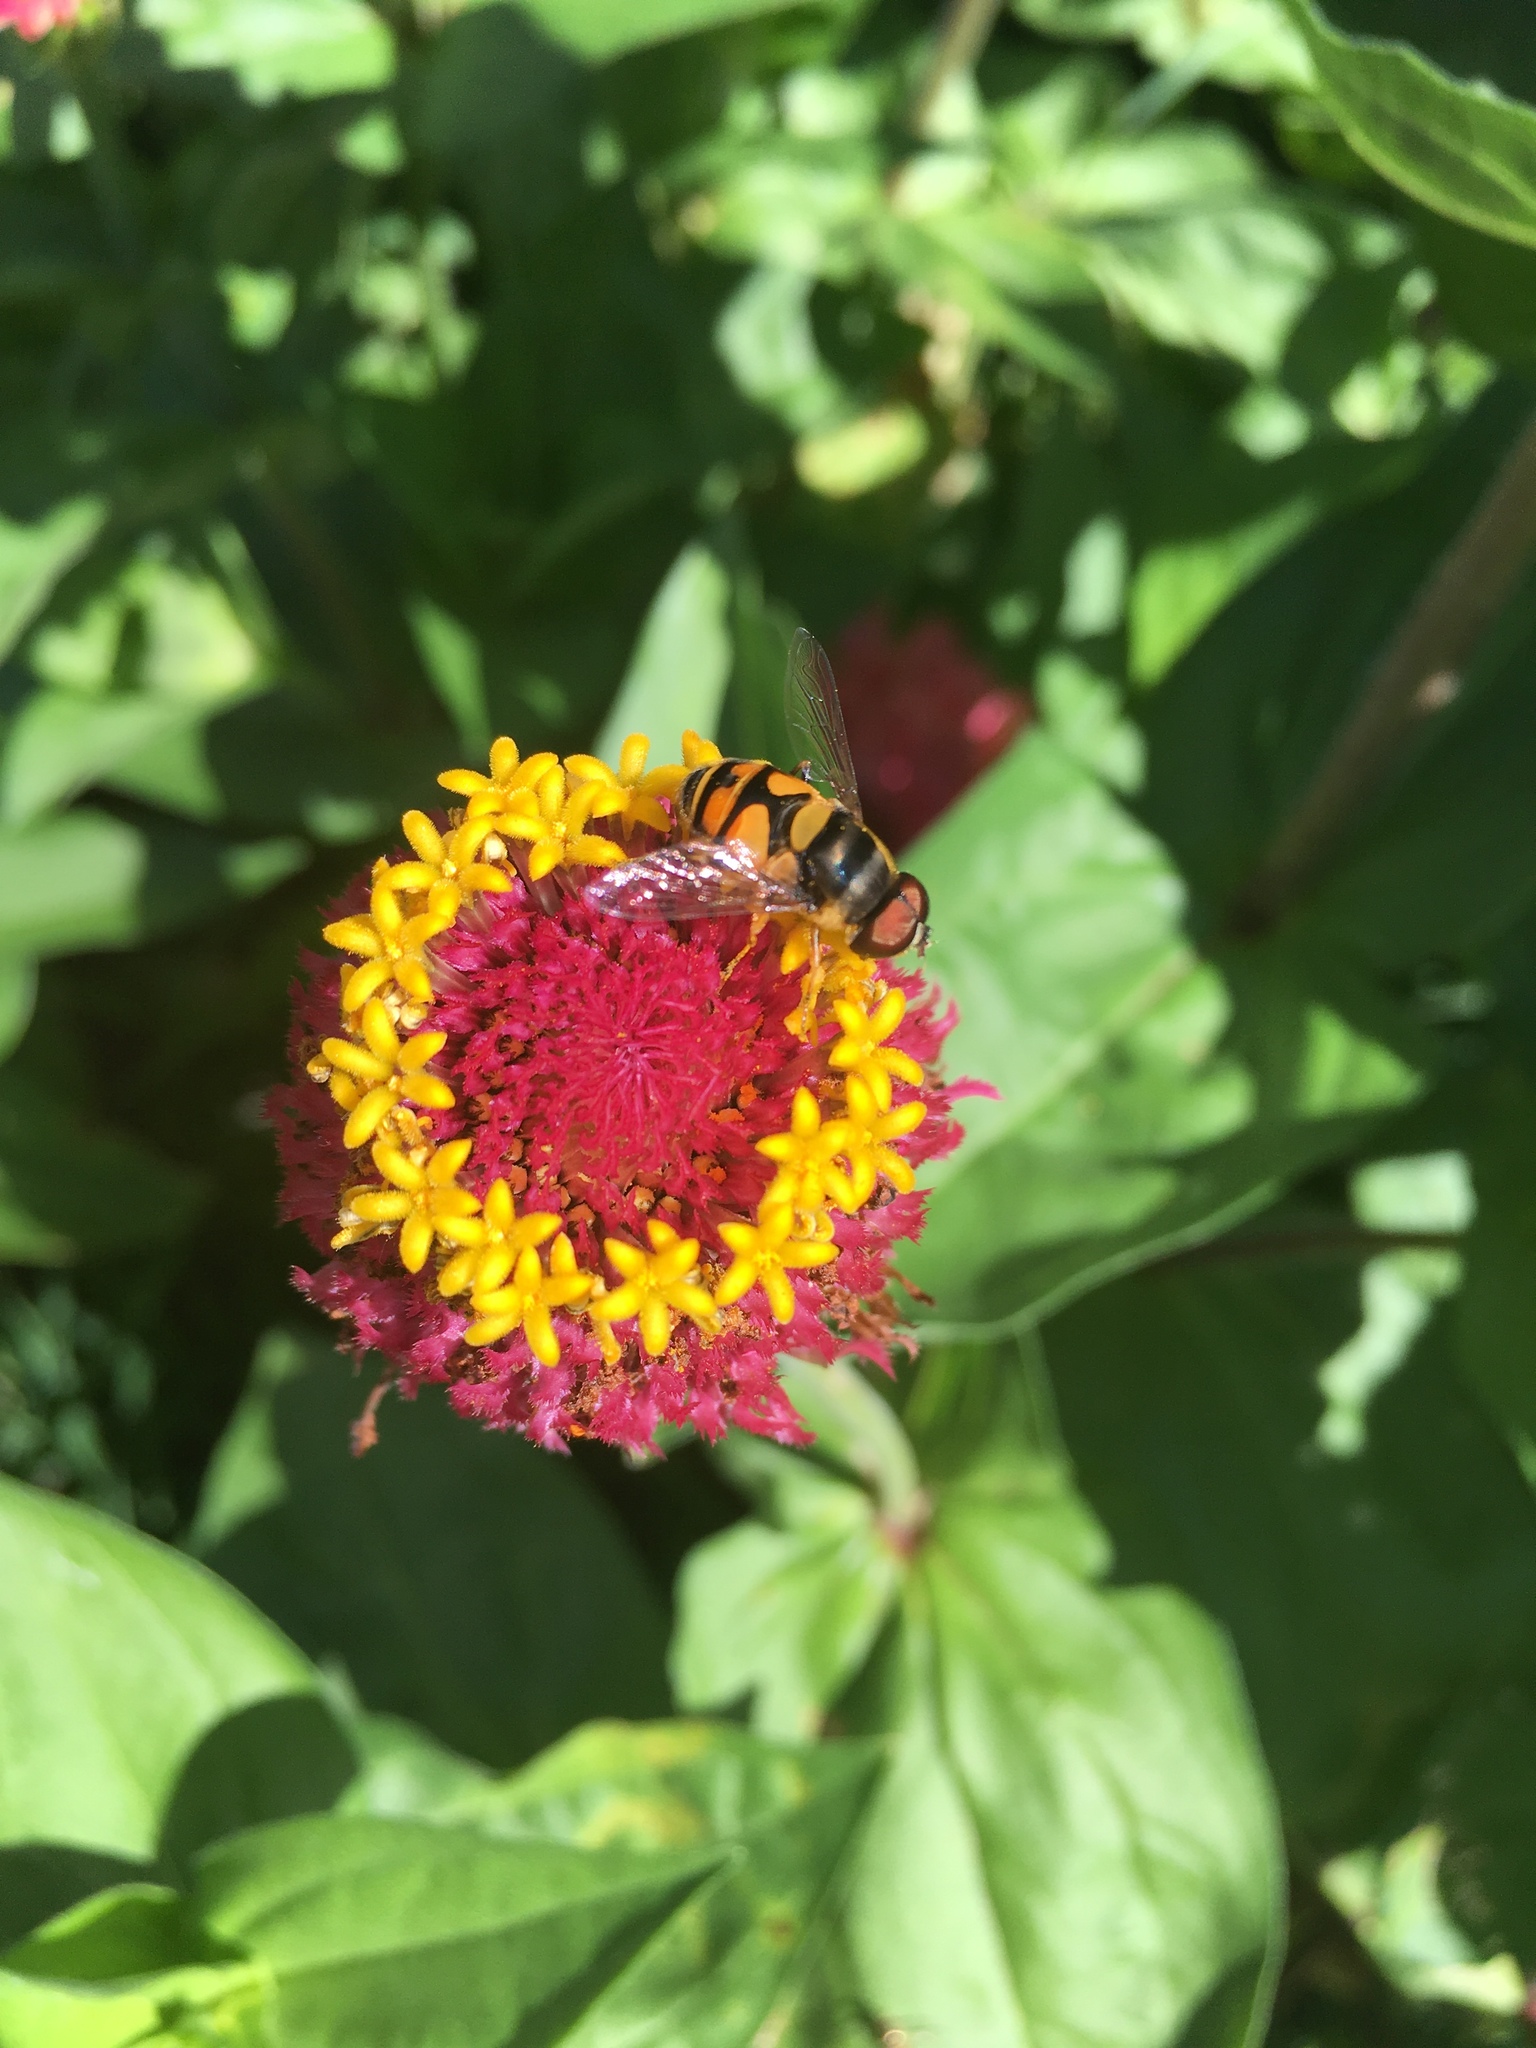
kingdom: Animalia
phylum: Arthropoda
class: Insecta
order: Diptera
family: Syrphidae
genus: Eristalis
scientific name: Eristalis transversa
